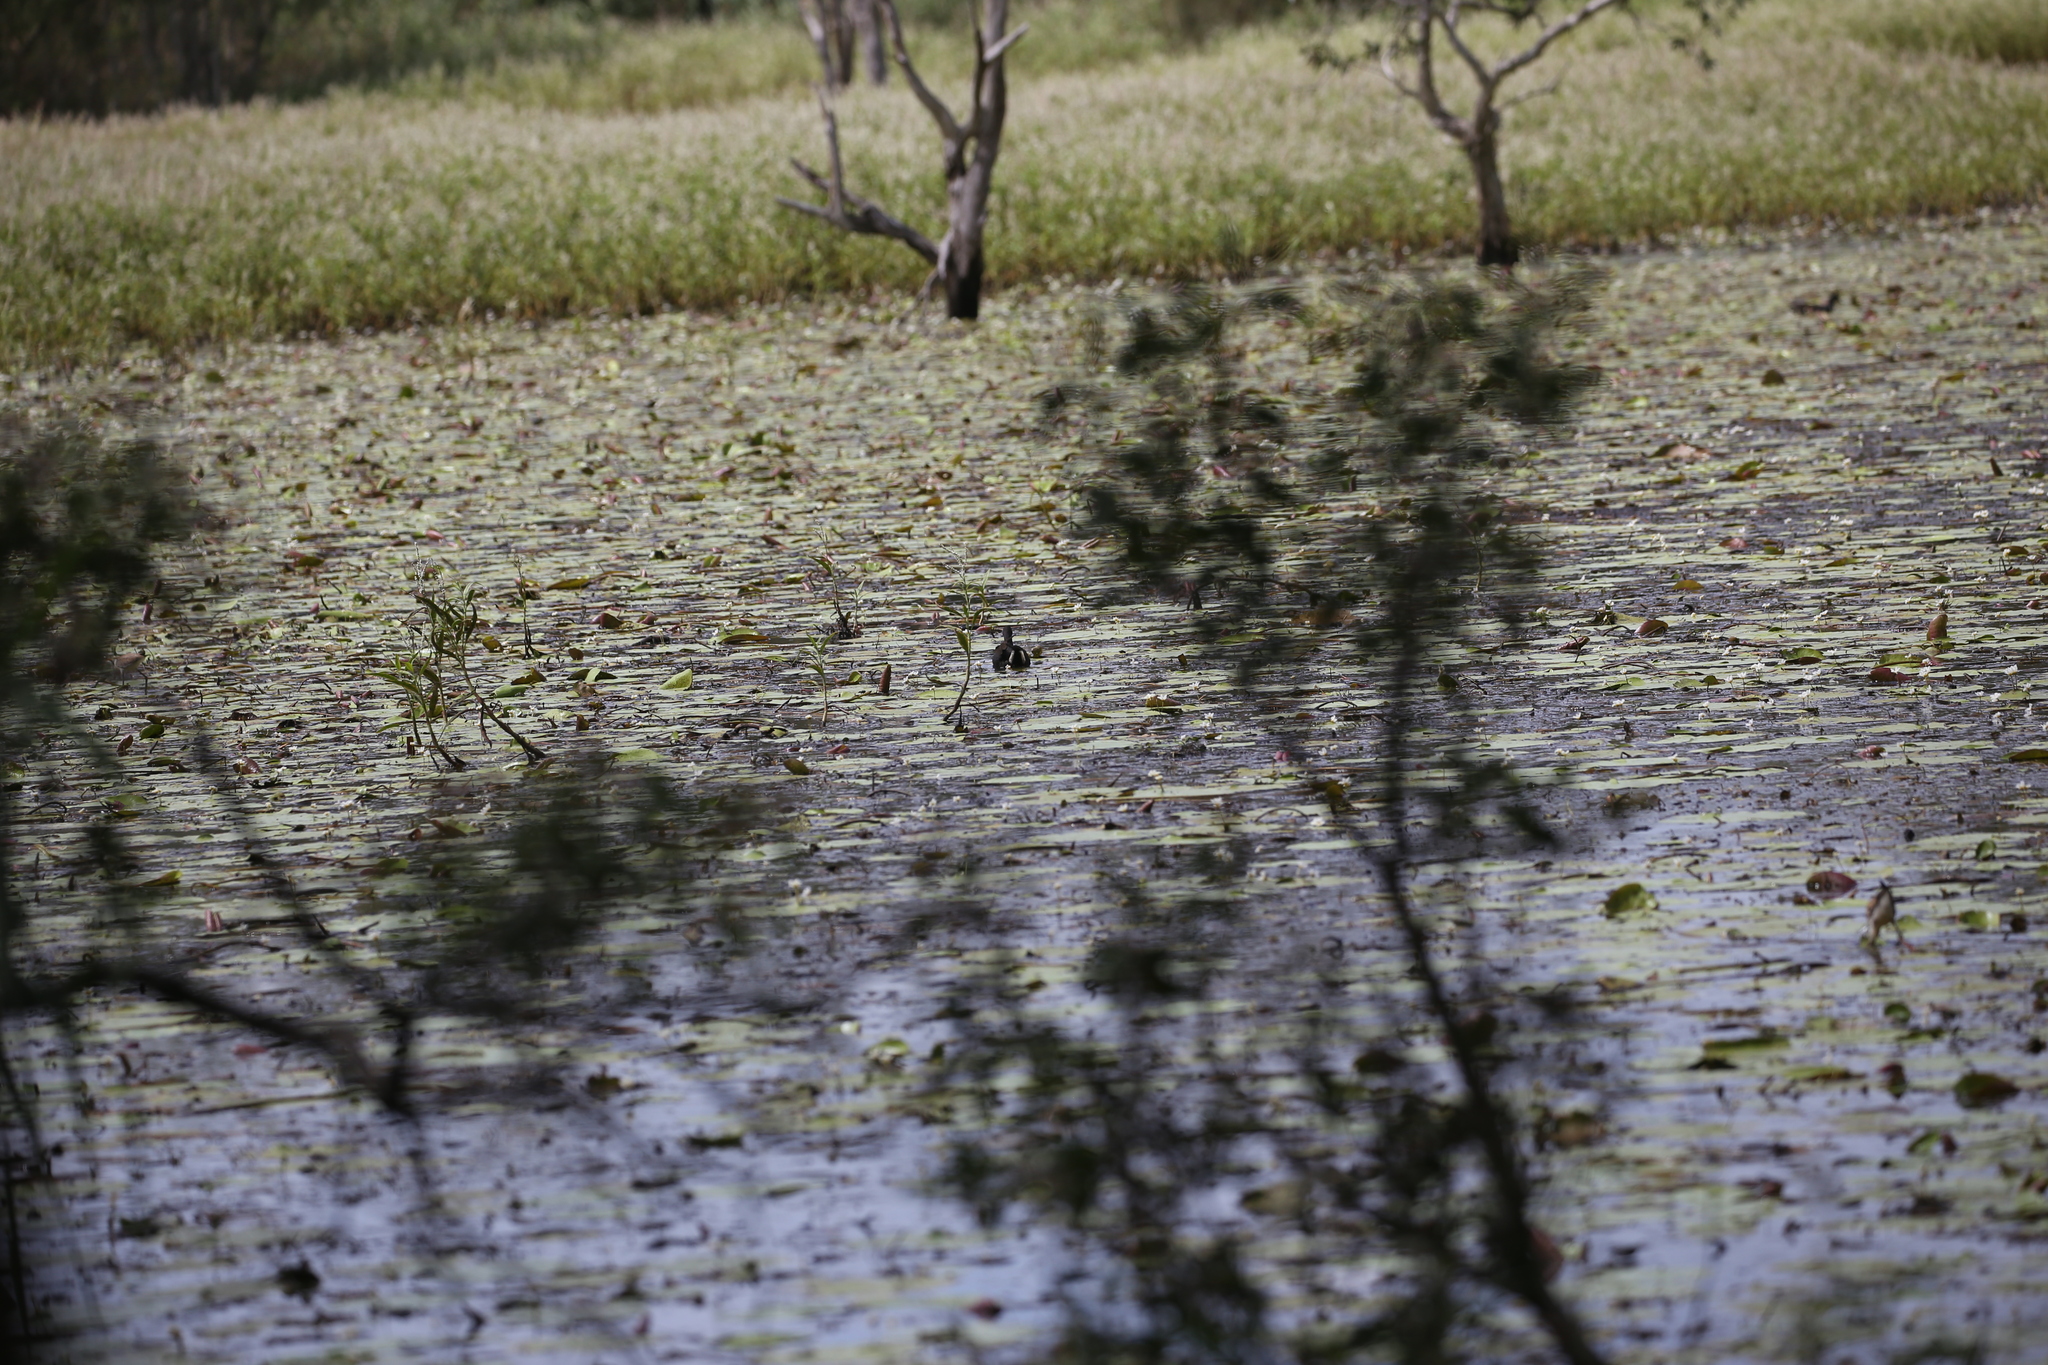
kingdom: Animalia
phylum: Chordata
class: Aves
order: Gruiformes
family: Rallidae
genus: Gallinula
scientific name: Gallinula tenebrosa
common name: Dusky moorhen
